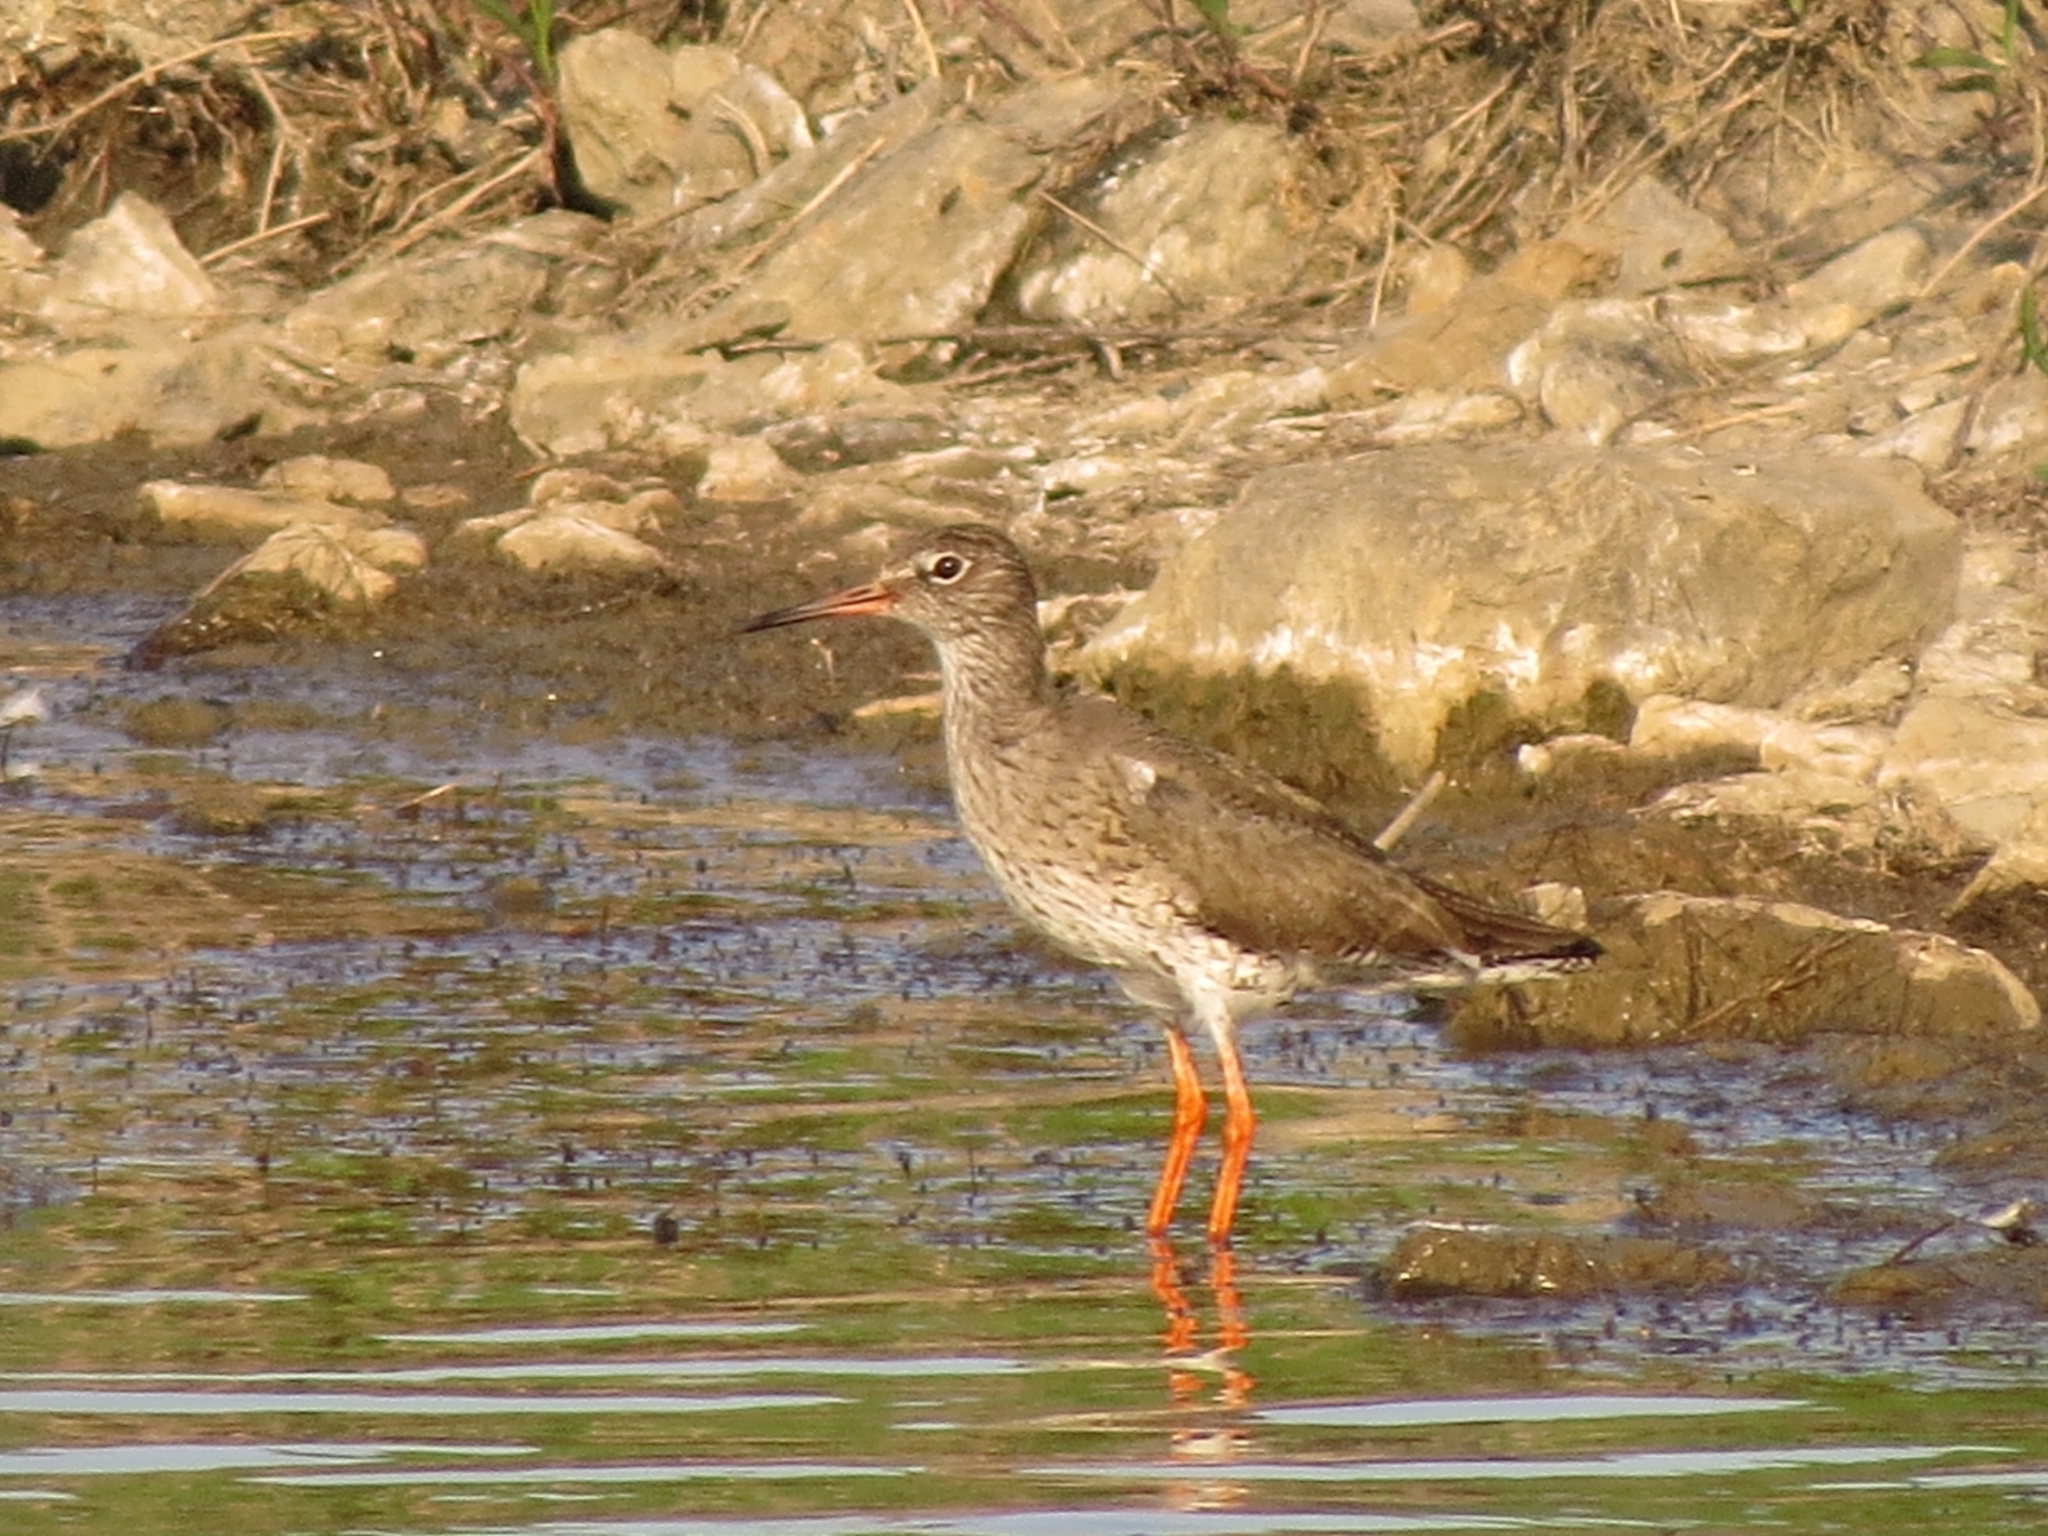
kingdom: Animalia
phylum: Chordata
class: Aves
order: Charadriiformes
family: Scolopacidae
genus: Tringa
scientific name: Tringa totanus
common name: Common redshank
